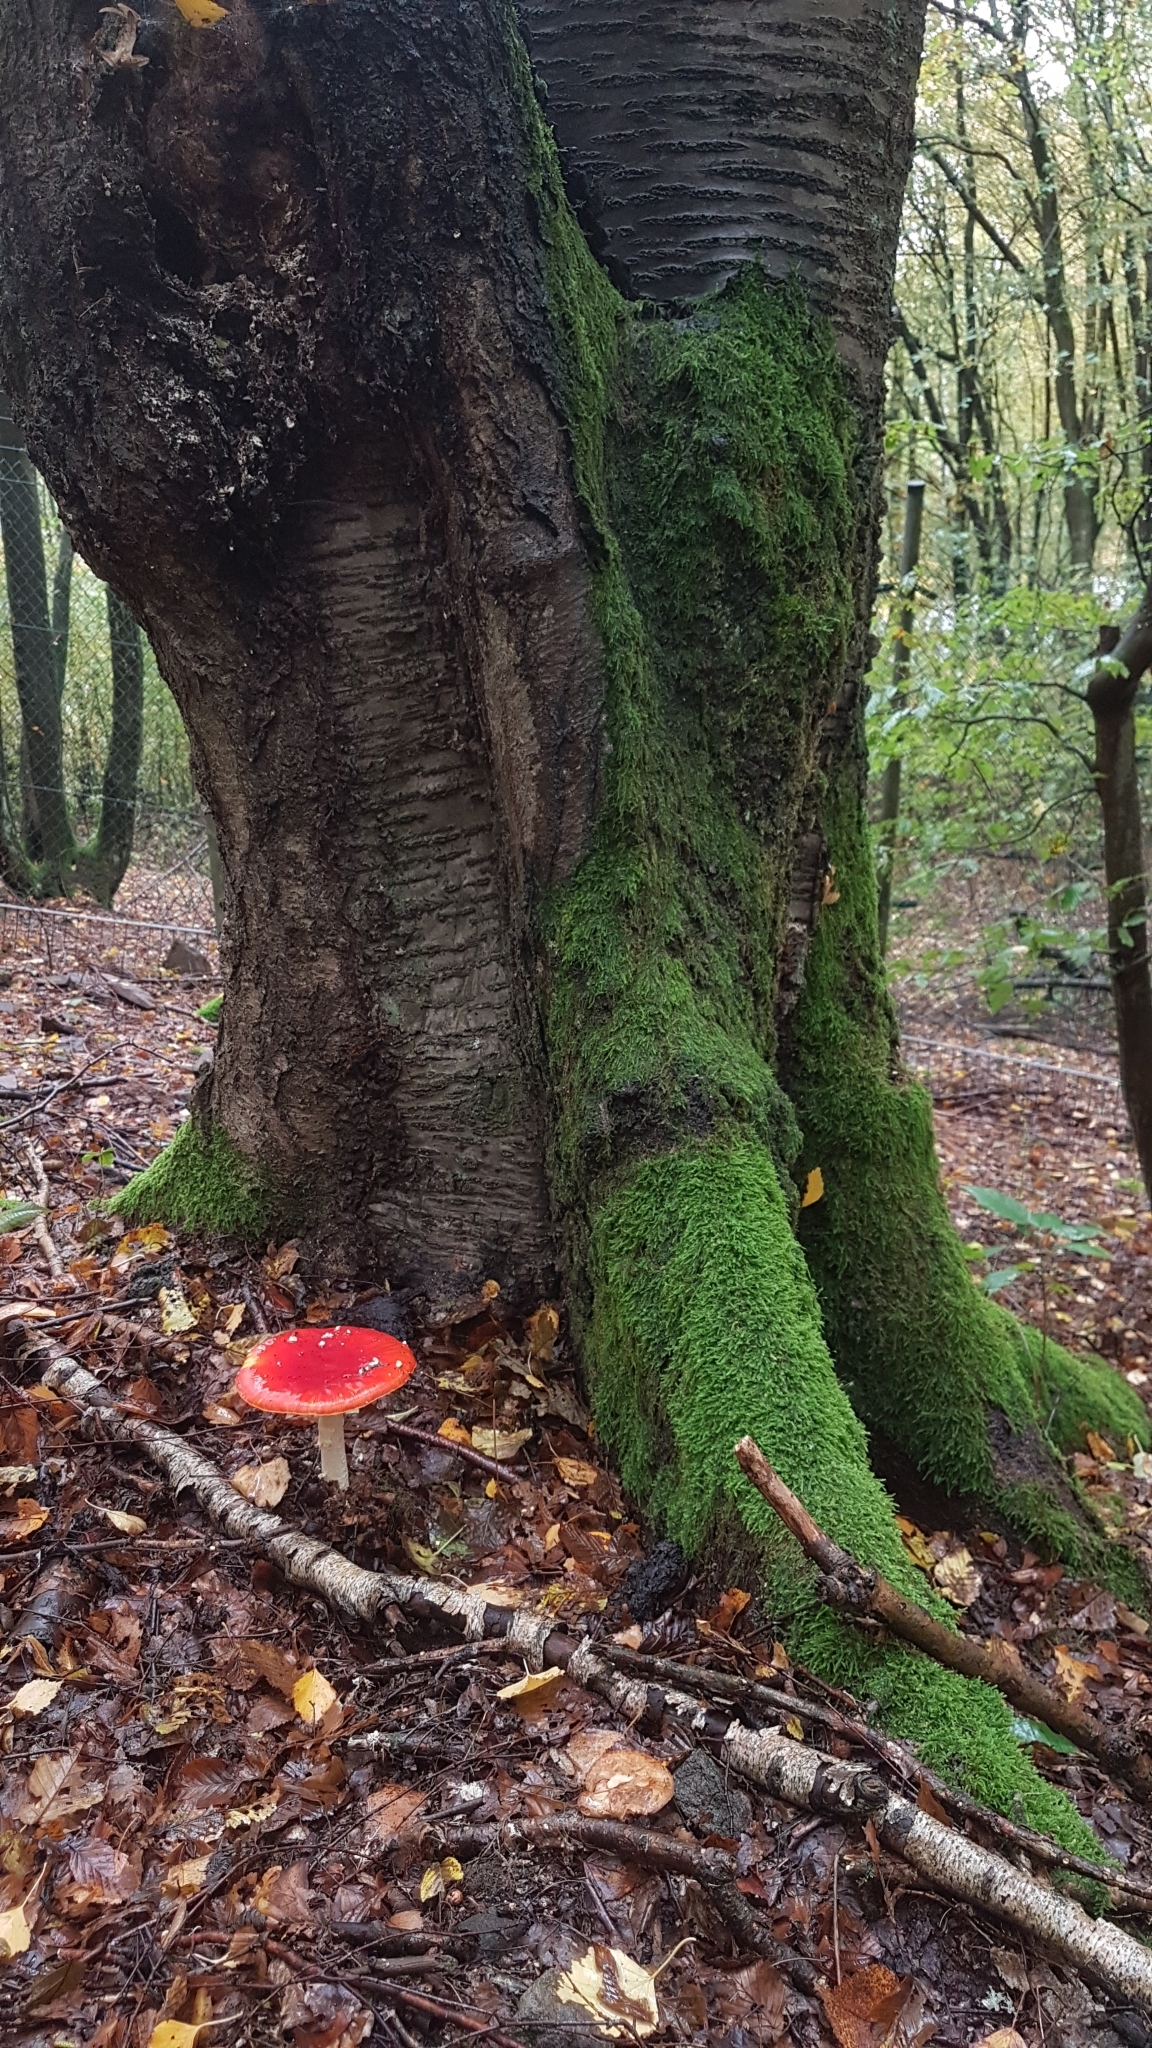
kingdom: Fungi
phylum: Basidiomycota
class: Agaricomycetes
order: Agaricales
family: Amanitaceae
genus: Amanita
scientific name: Amanita muscaria
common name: Fly agaric
